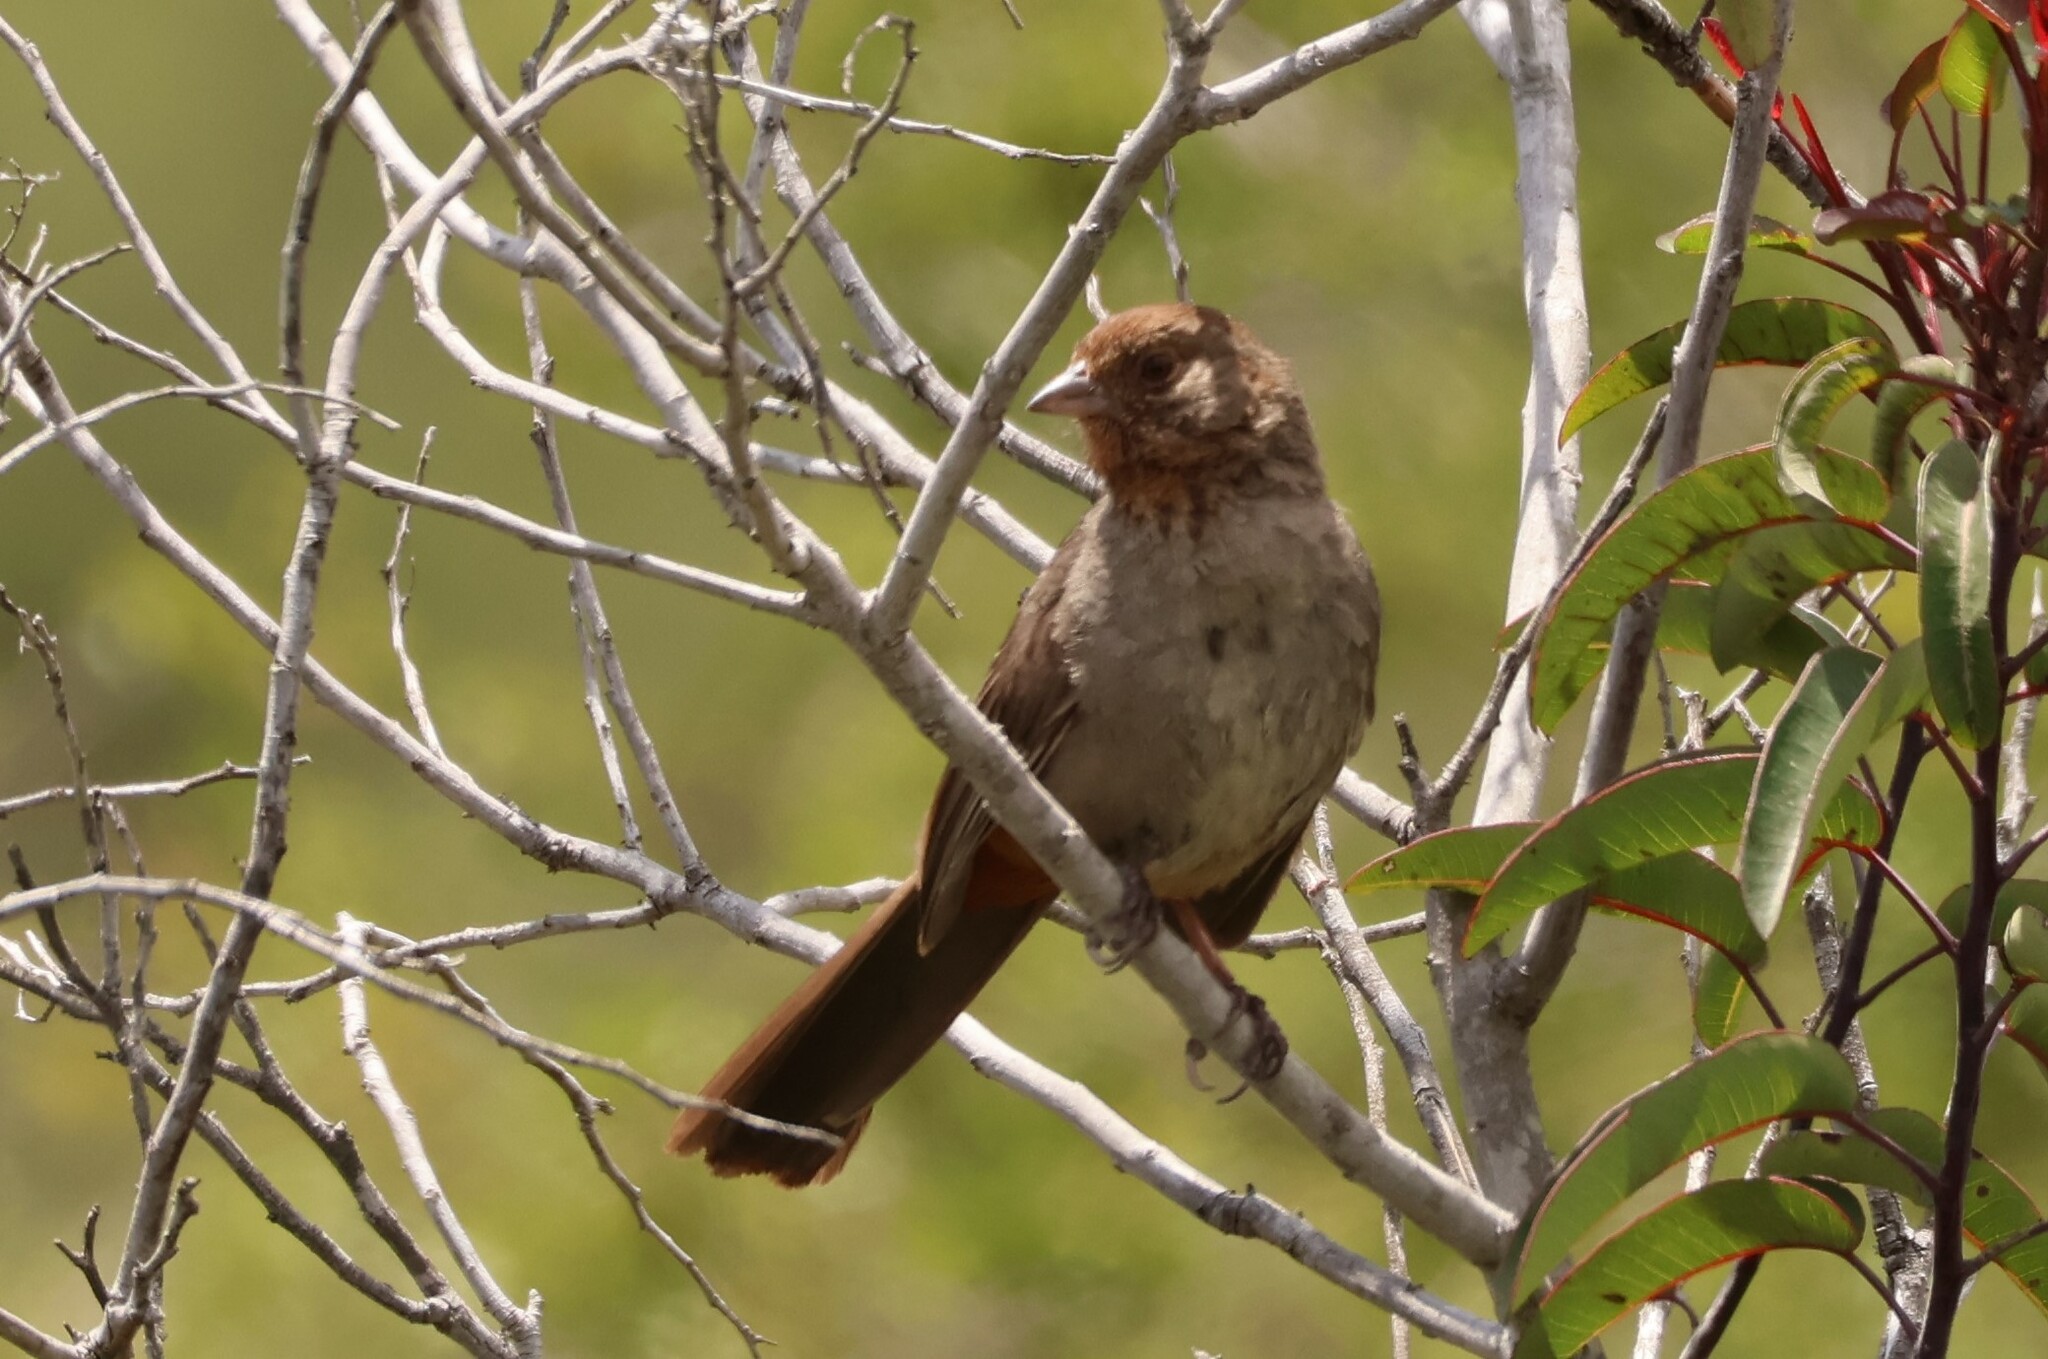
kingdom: Animalia
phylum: Chordata
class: Aves
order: Passeriformes
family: Passerellidae
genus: Melozone
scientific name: Melozone crissalis
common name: California towhee
